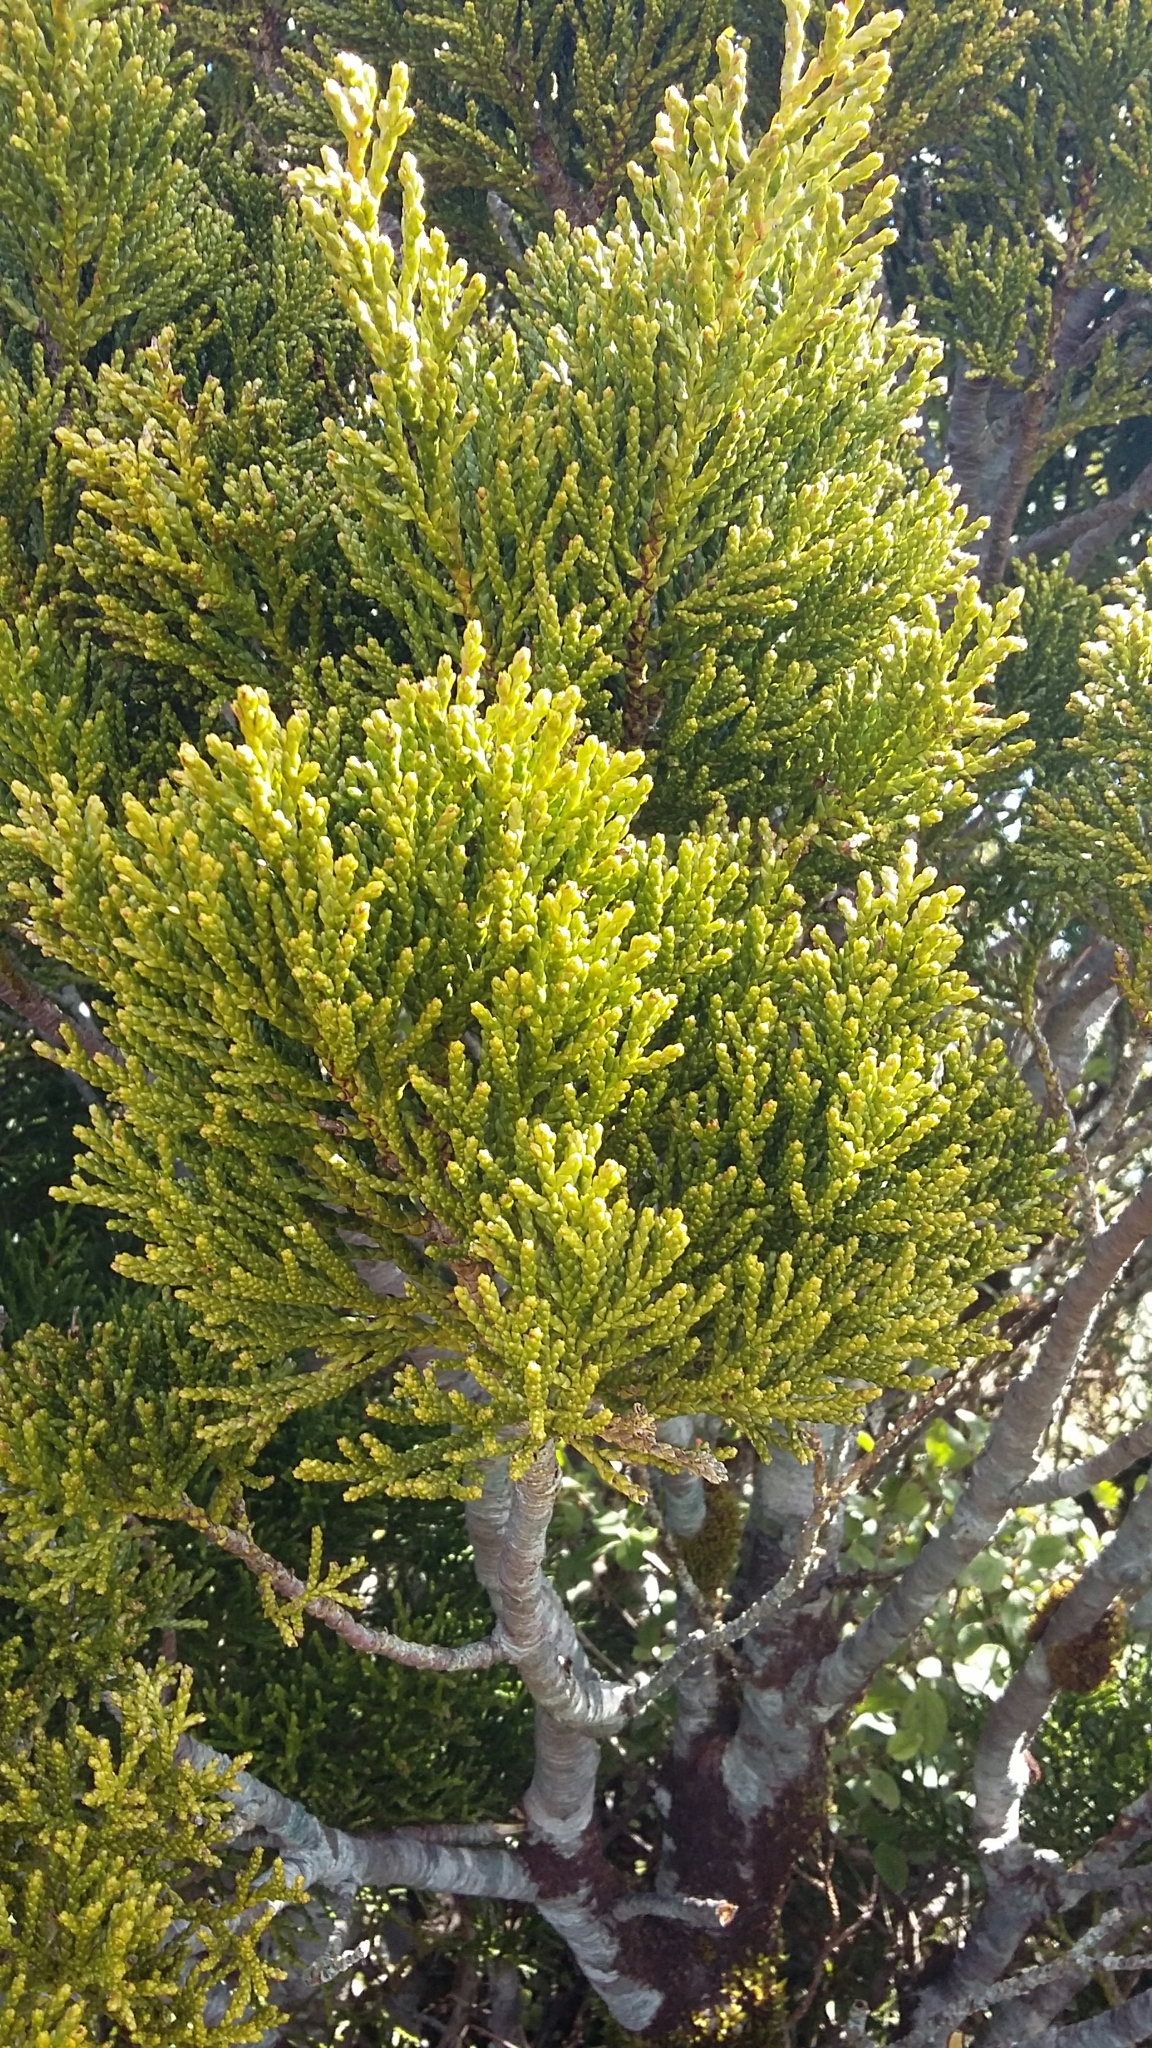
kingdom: Plantae
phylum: Tracheophyta
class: Pinopsida
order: Pinales
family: Podocarpaceae
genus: Halocarpus
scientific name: Halocarpus bidwillii
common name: Bog pine
